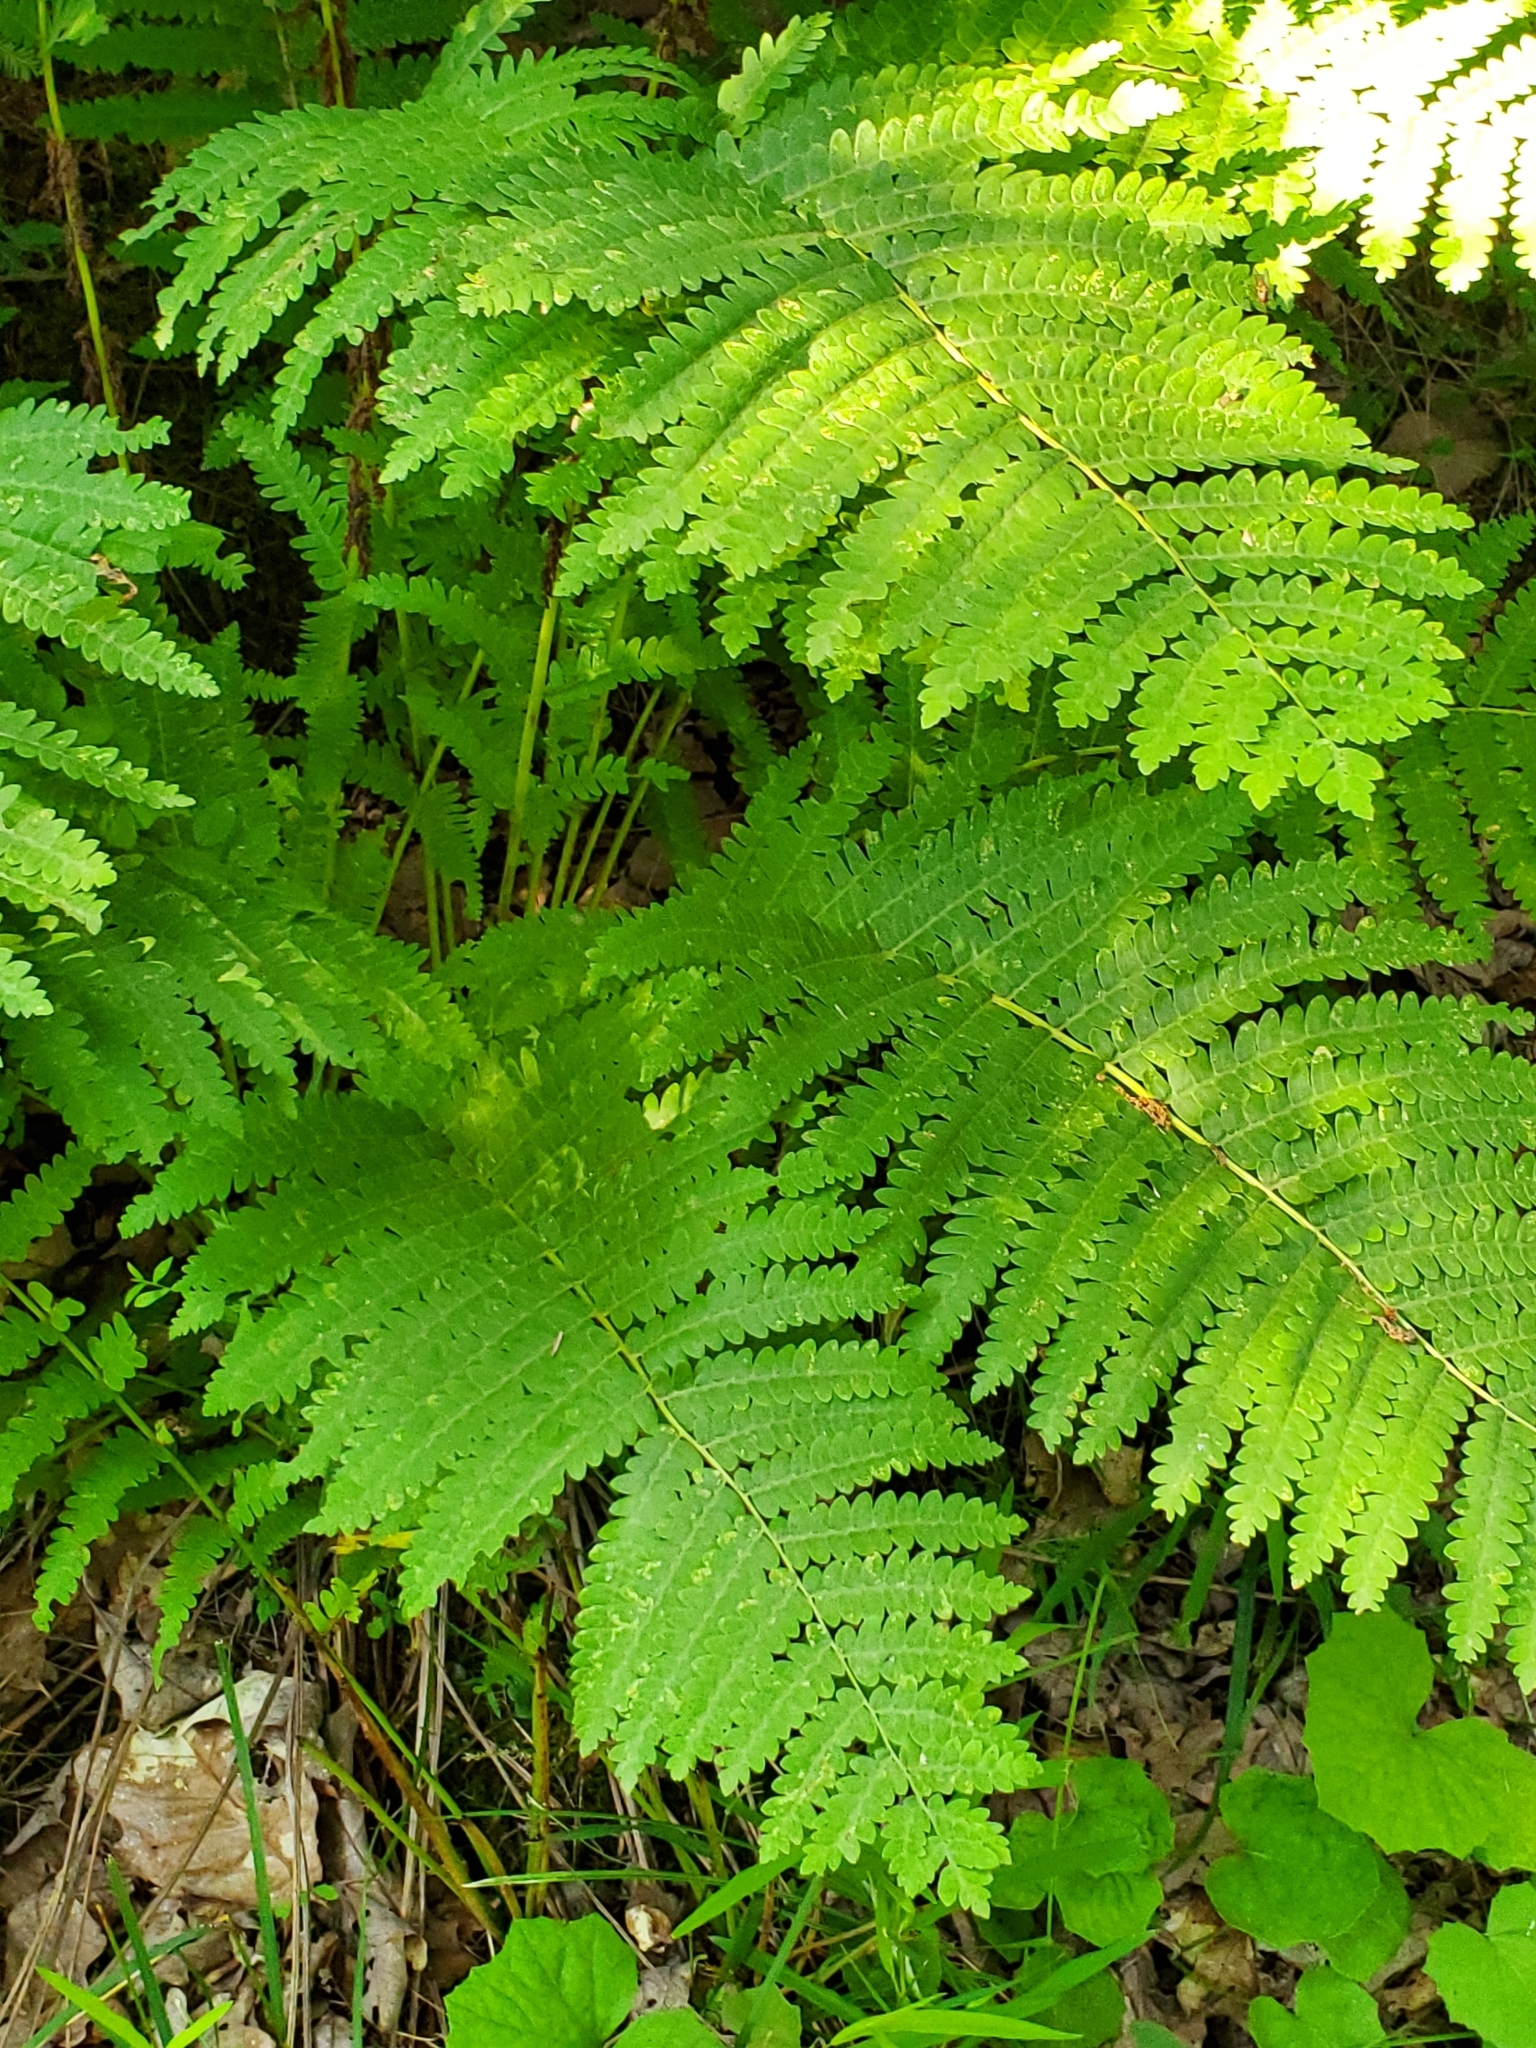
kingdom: Plantae
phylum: Tracheophyta
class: Polypodiopsida
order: Osmundales
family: Osmundaceae
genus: Claytosmunda
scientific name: Claytosmunda claytoniana
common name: Clayton's fern
